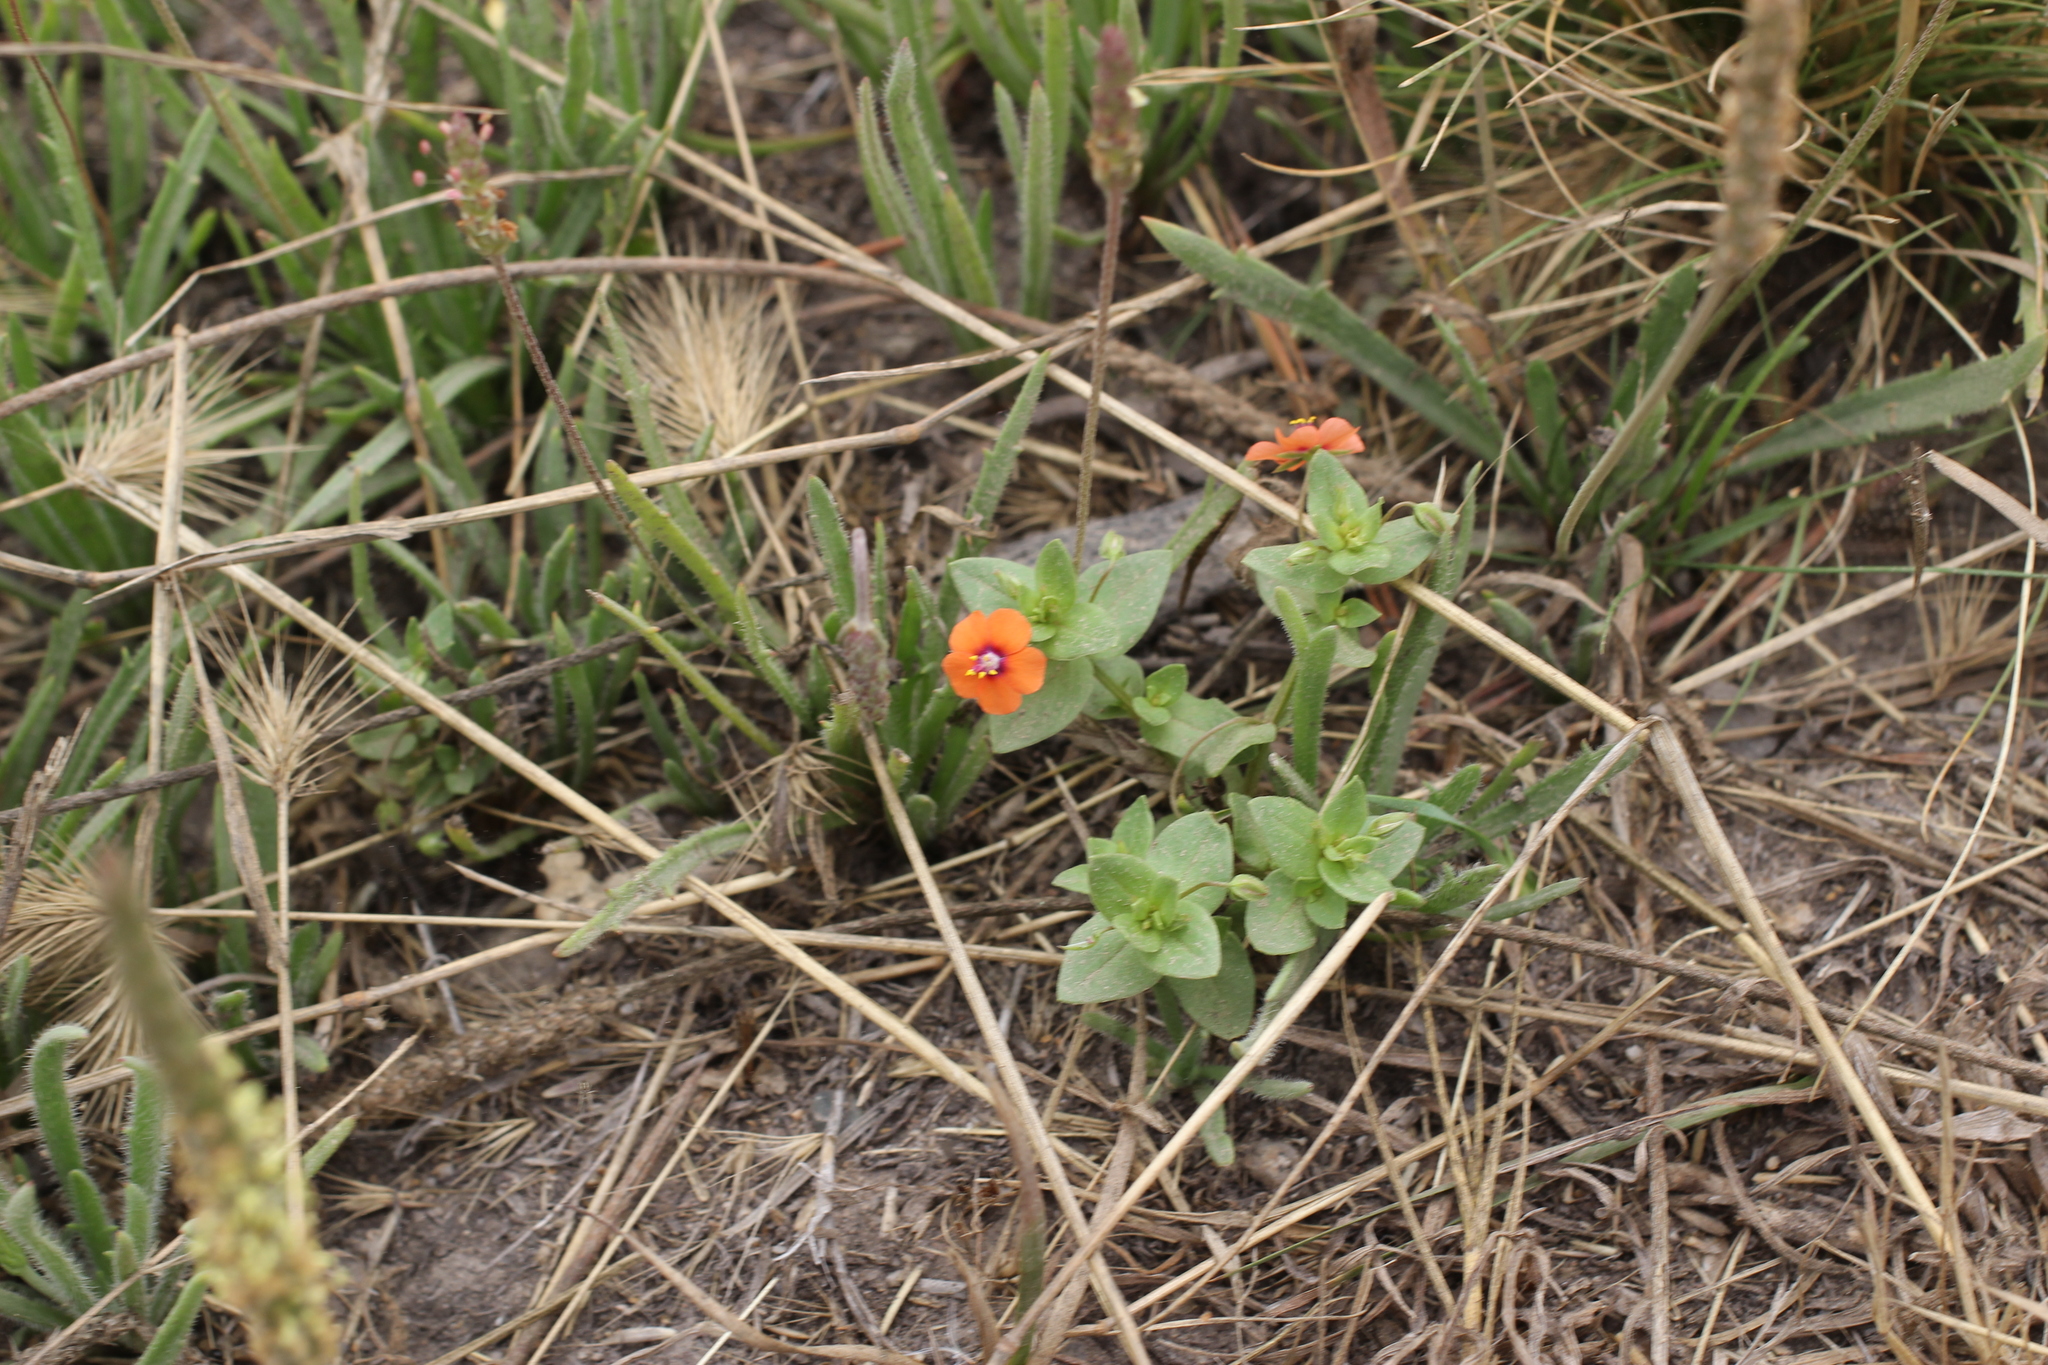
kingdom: Plantae
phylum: Tracheophyta
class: Magnoliopsida
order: Ericales
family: Primulaceae
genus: Lysimachia
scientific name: Lysimachia arvensis
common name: Scarlet pimpernel
